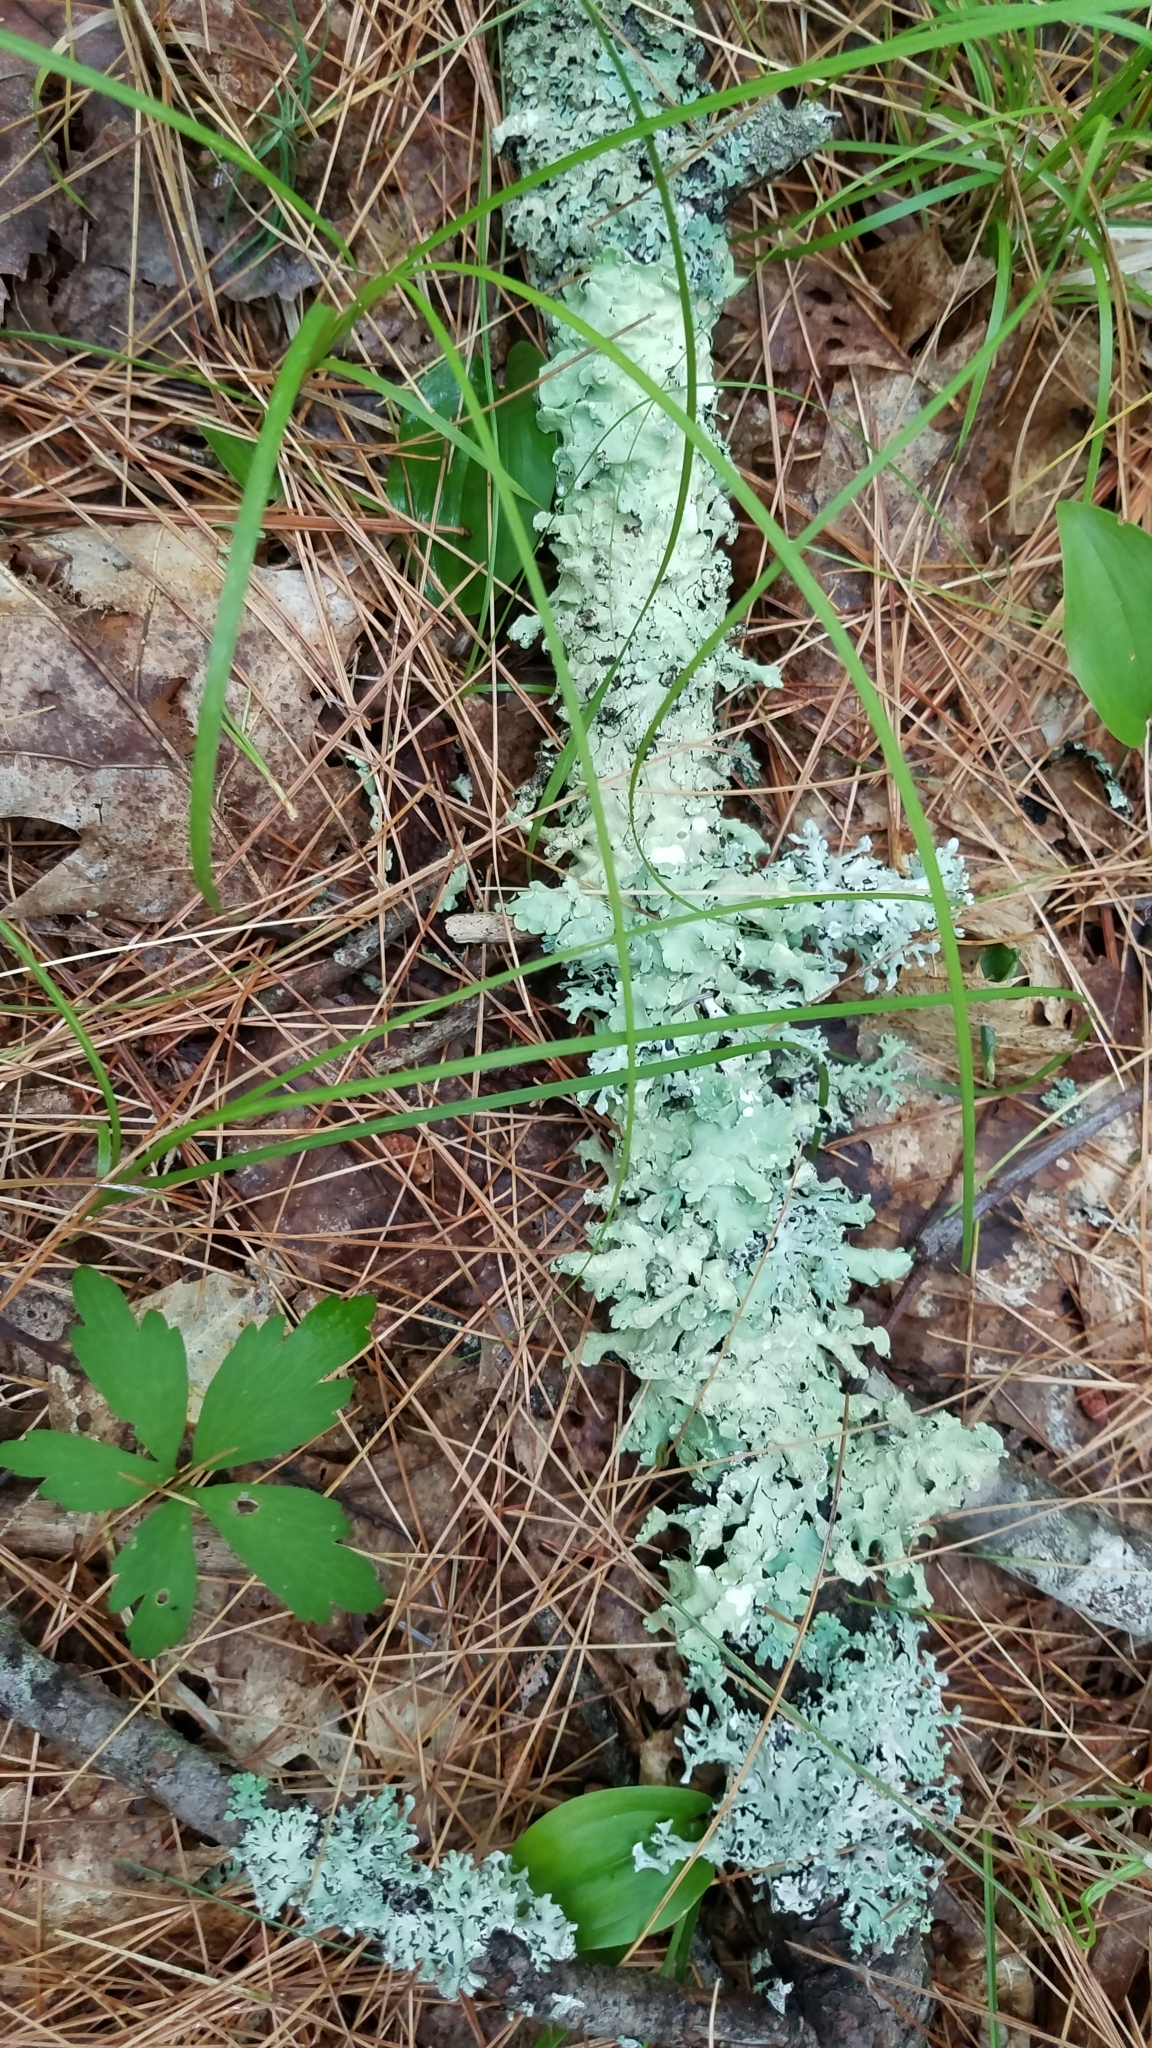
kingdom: Fungi
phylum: Ascomycota
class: Lecanoromycetes
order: Lecanorales
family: Parmeliaceae
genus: Flavoparmelia
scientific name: Flavoparmelia caperata
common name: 40-mile per hour lichen
